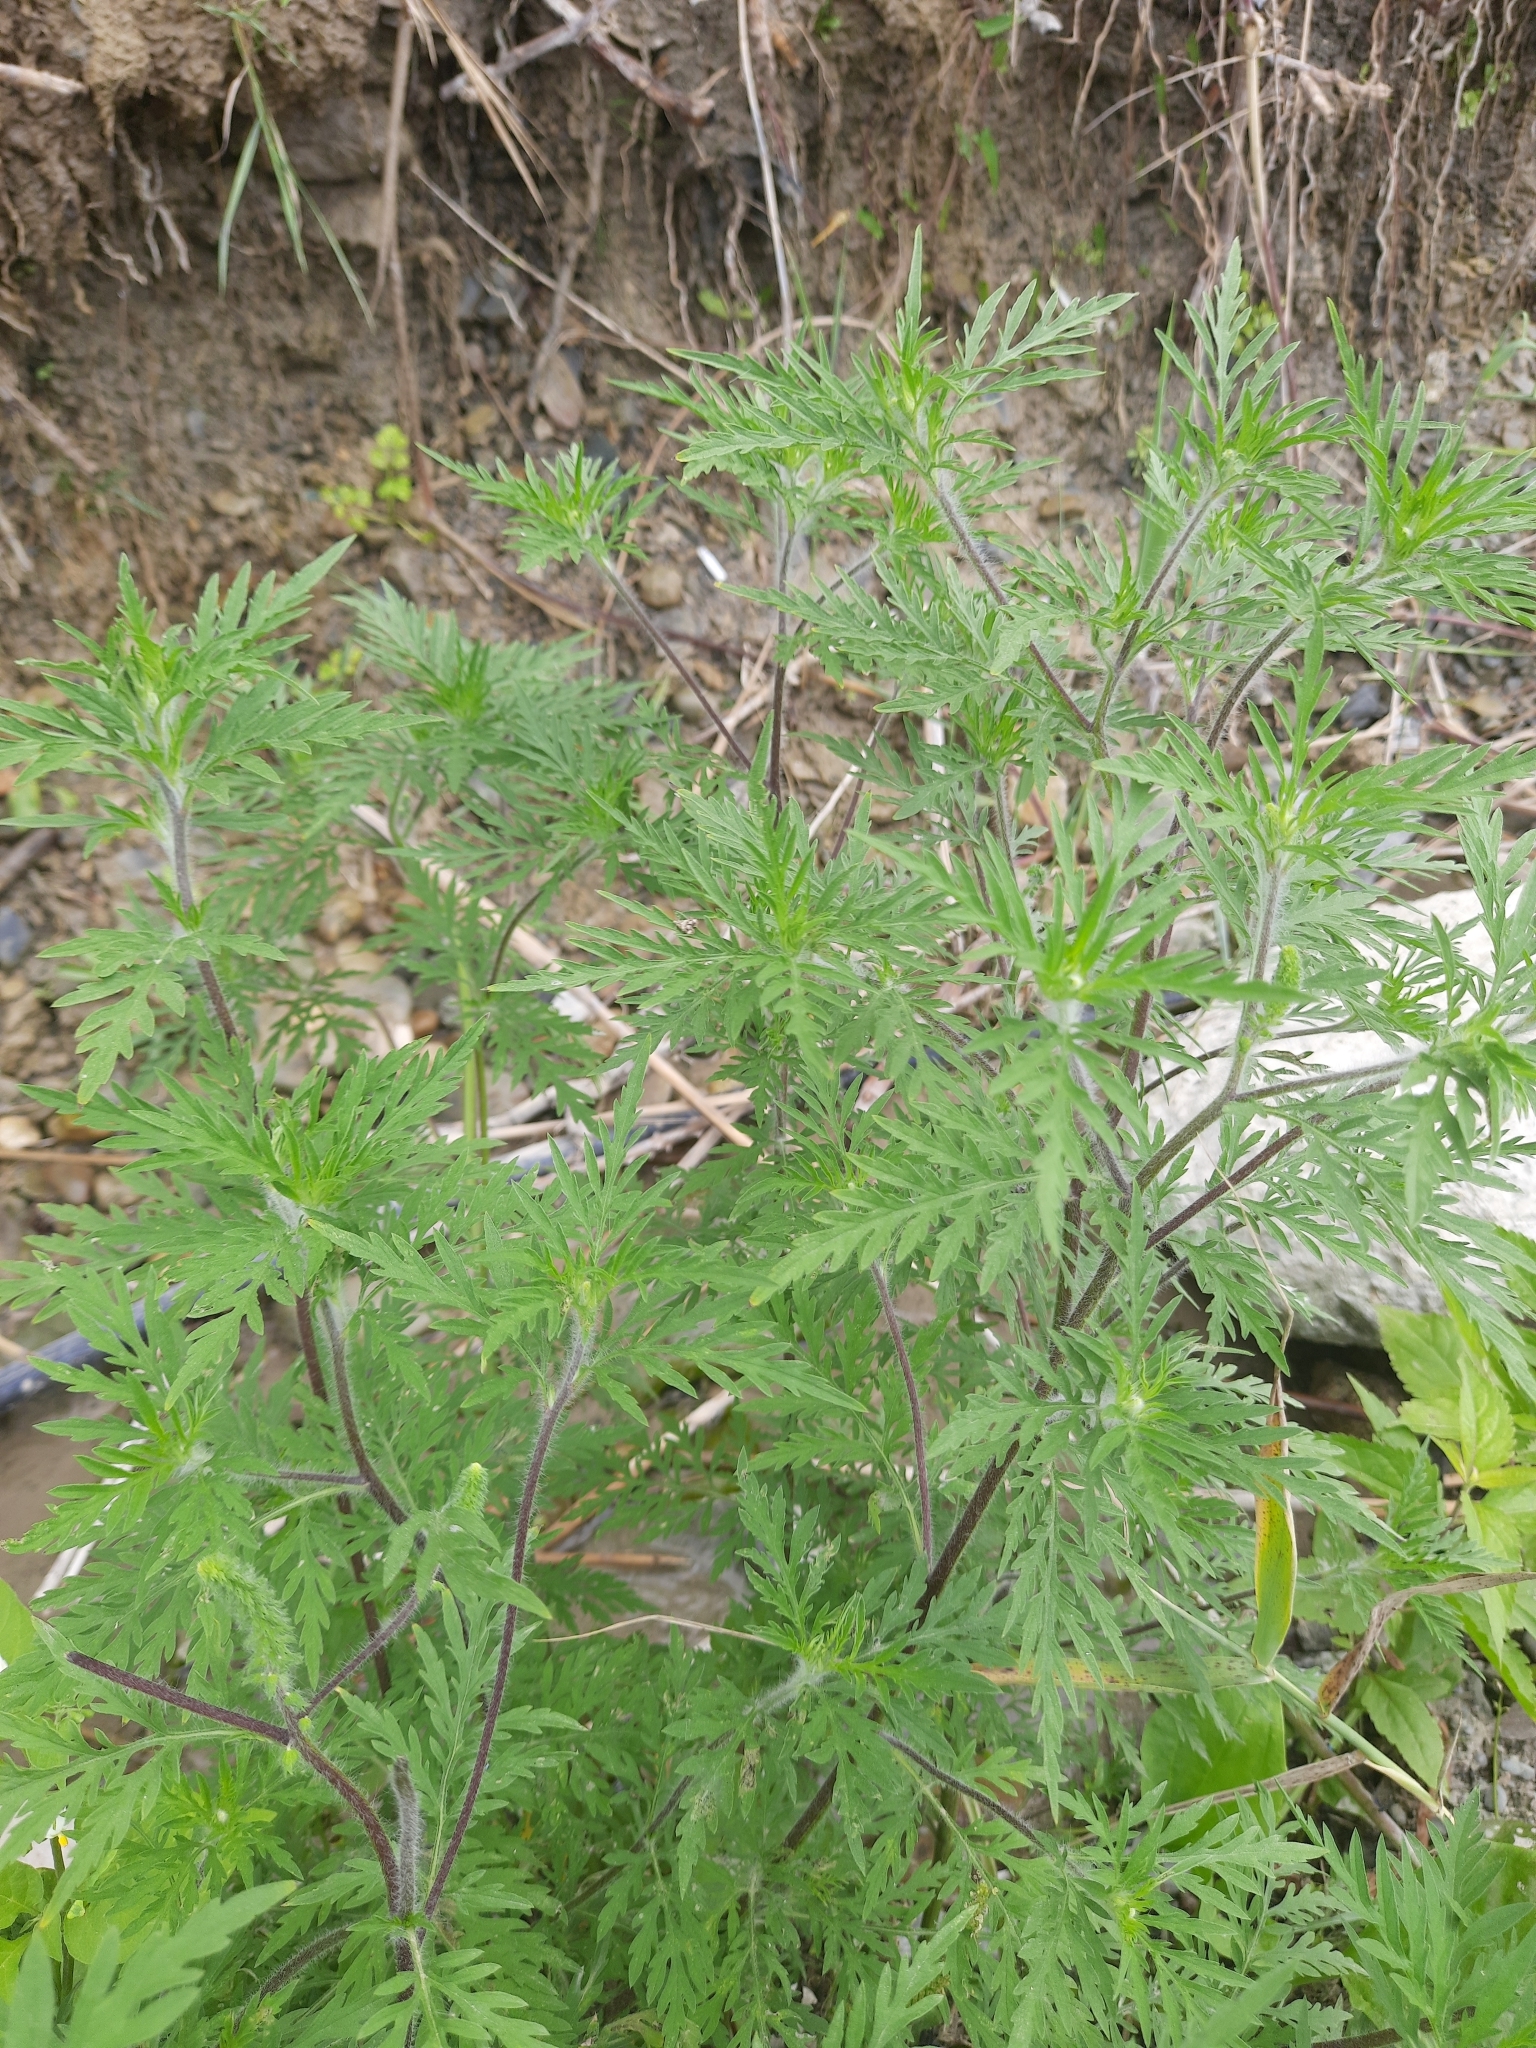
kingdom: Plantae
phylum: Tracheophyta
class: Magnoliopsida
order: Asterales
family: Asteraceae
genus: Ambrosia
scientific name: Ambrosia artemisiifolia
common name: Annual ragweed
